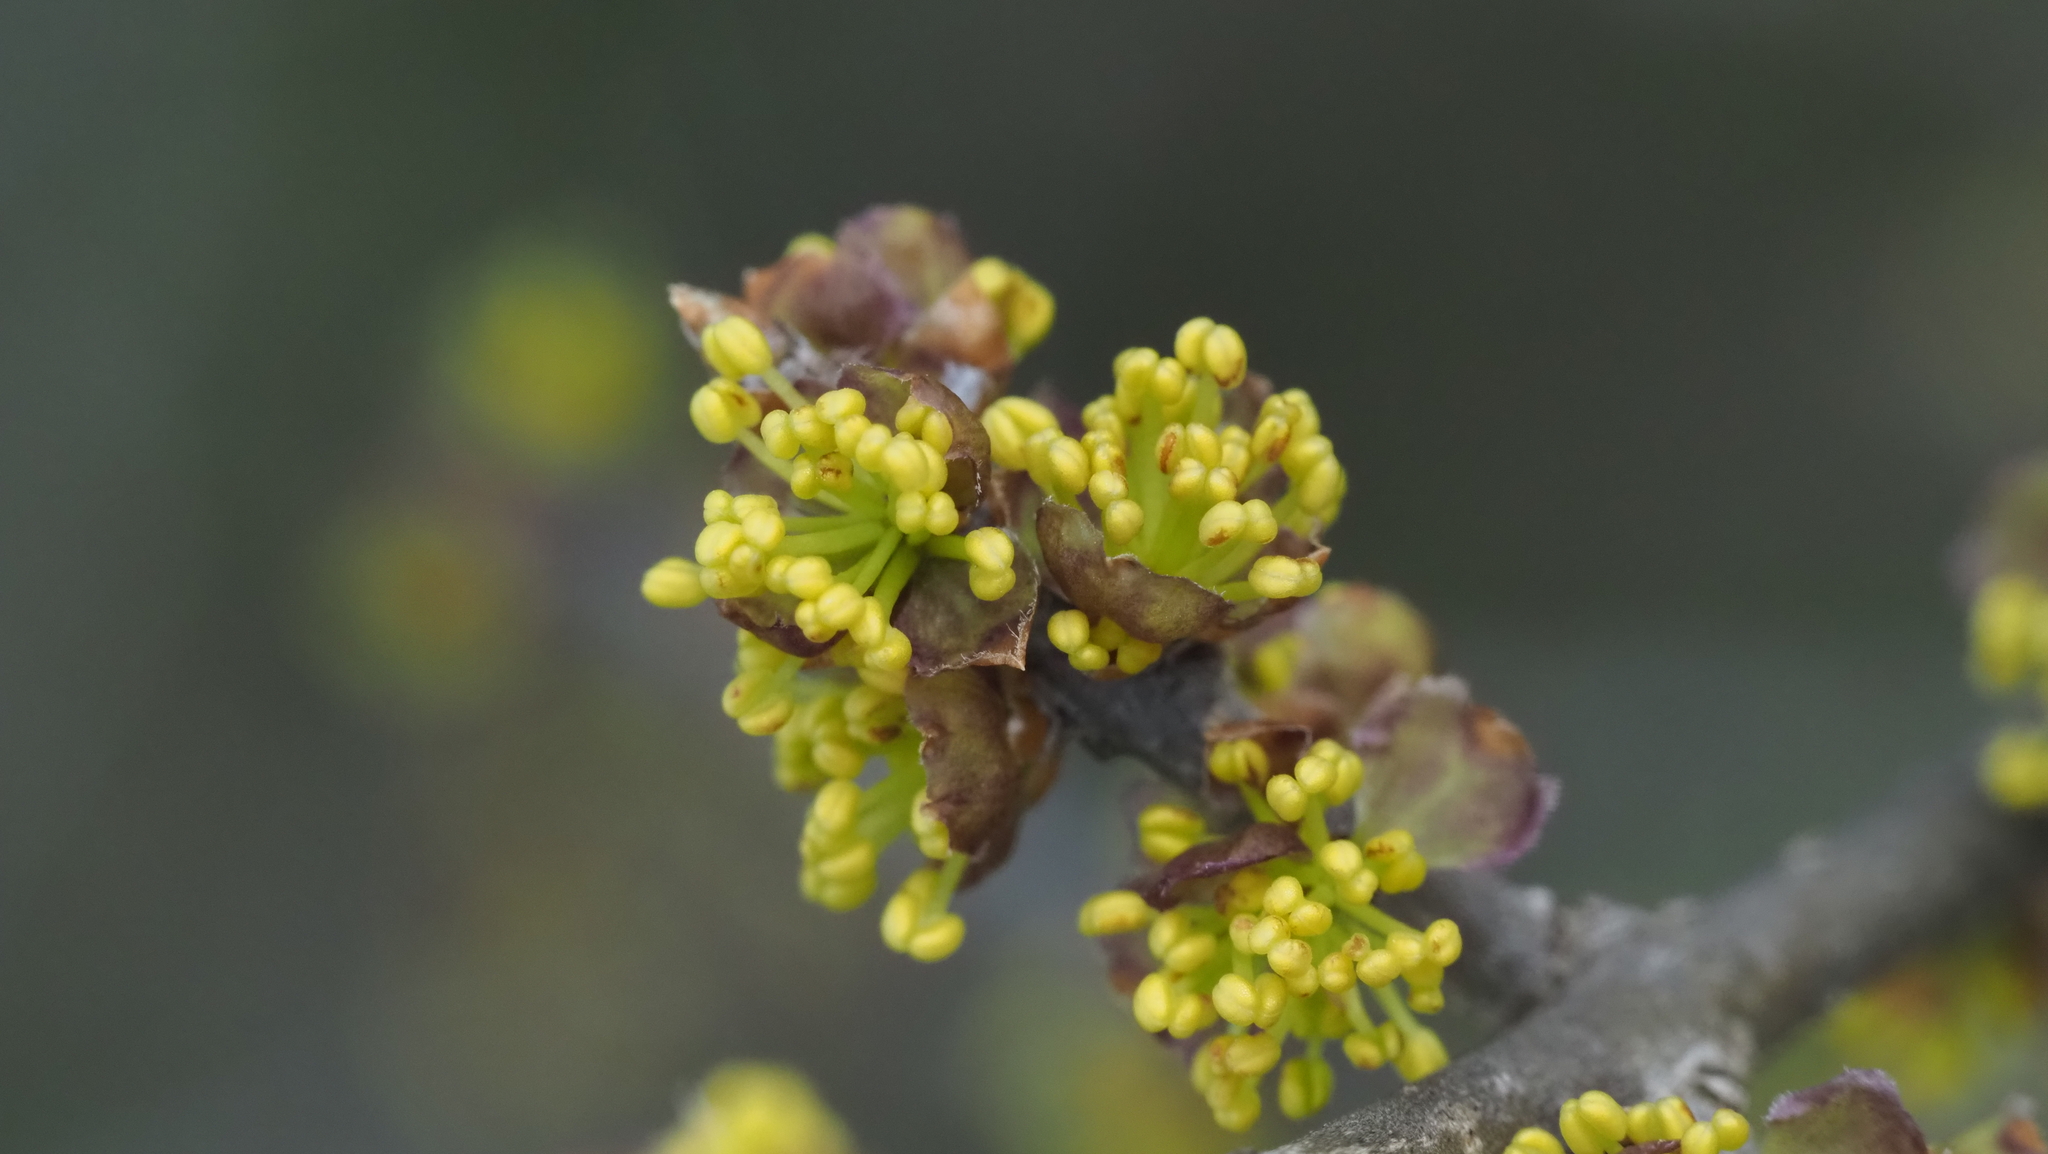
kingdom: Plantae
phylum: Tracheophyta
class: Magnoliopsida
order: Lamiales
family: Oleaceae
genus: Forestiera
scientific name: Forestiera pubescens
